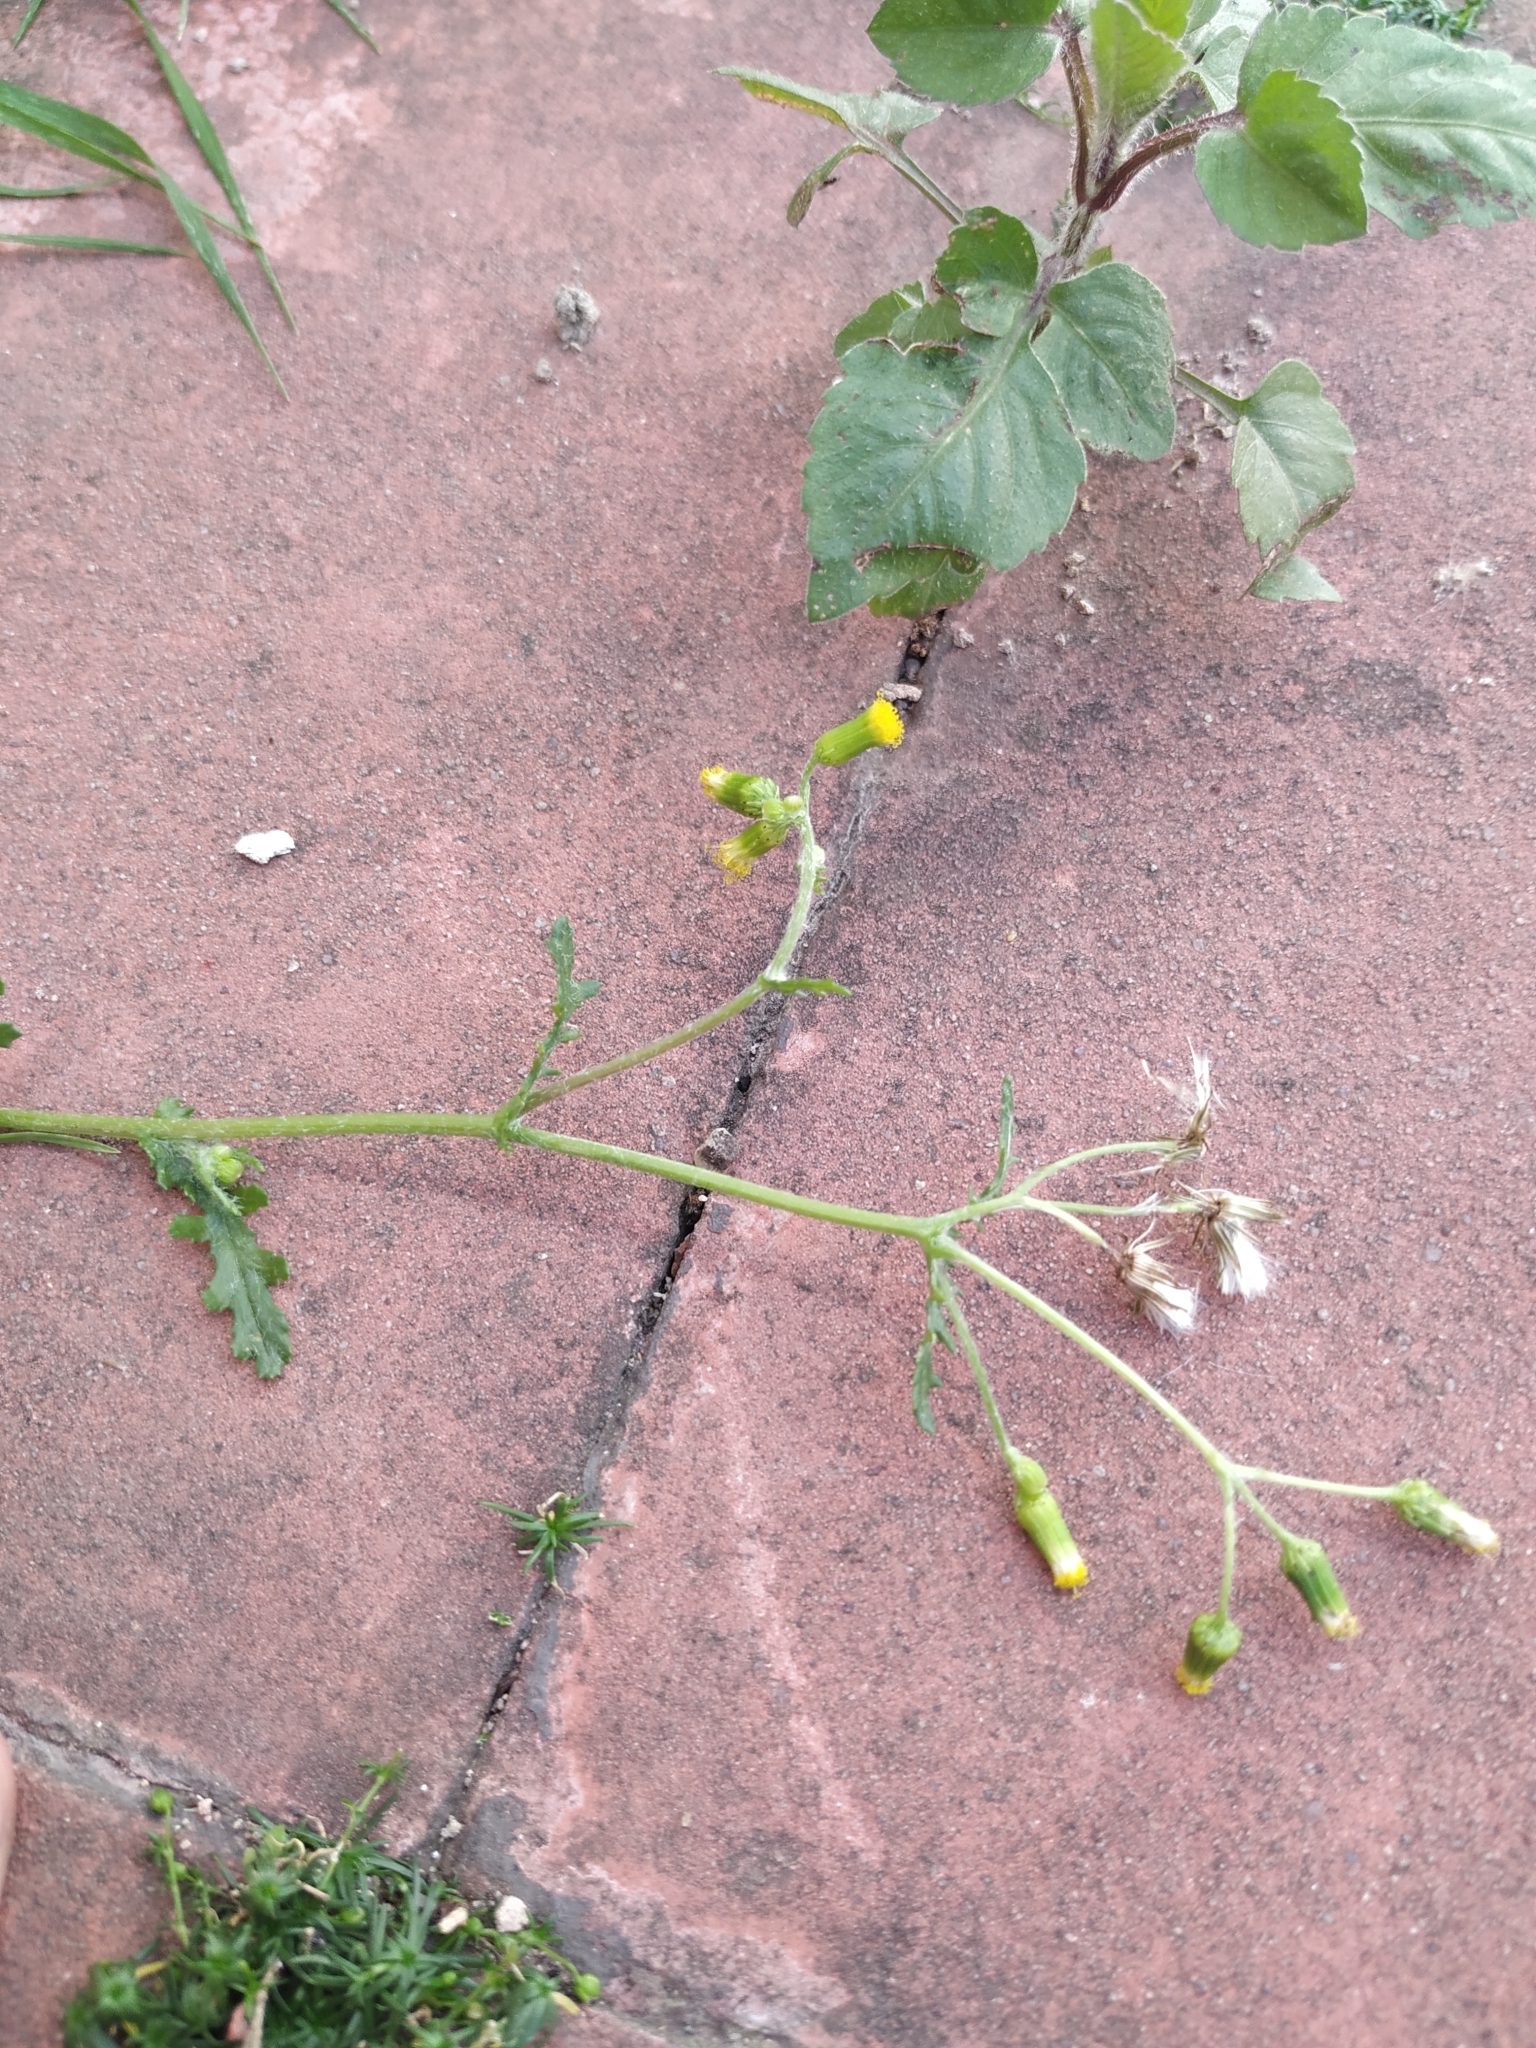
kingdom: Plantae
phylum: Tracheophyta
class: Magnoliopsida
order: Asterales
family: Asteraceae
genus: Senecio
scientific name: Senecio vulgaris
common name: Old-man-in-the-spring
